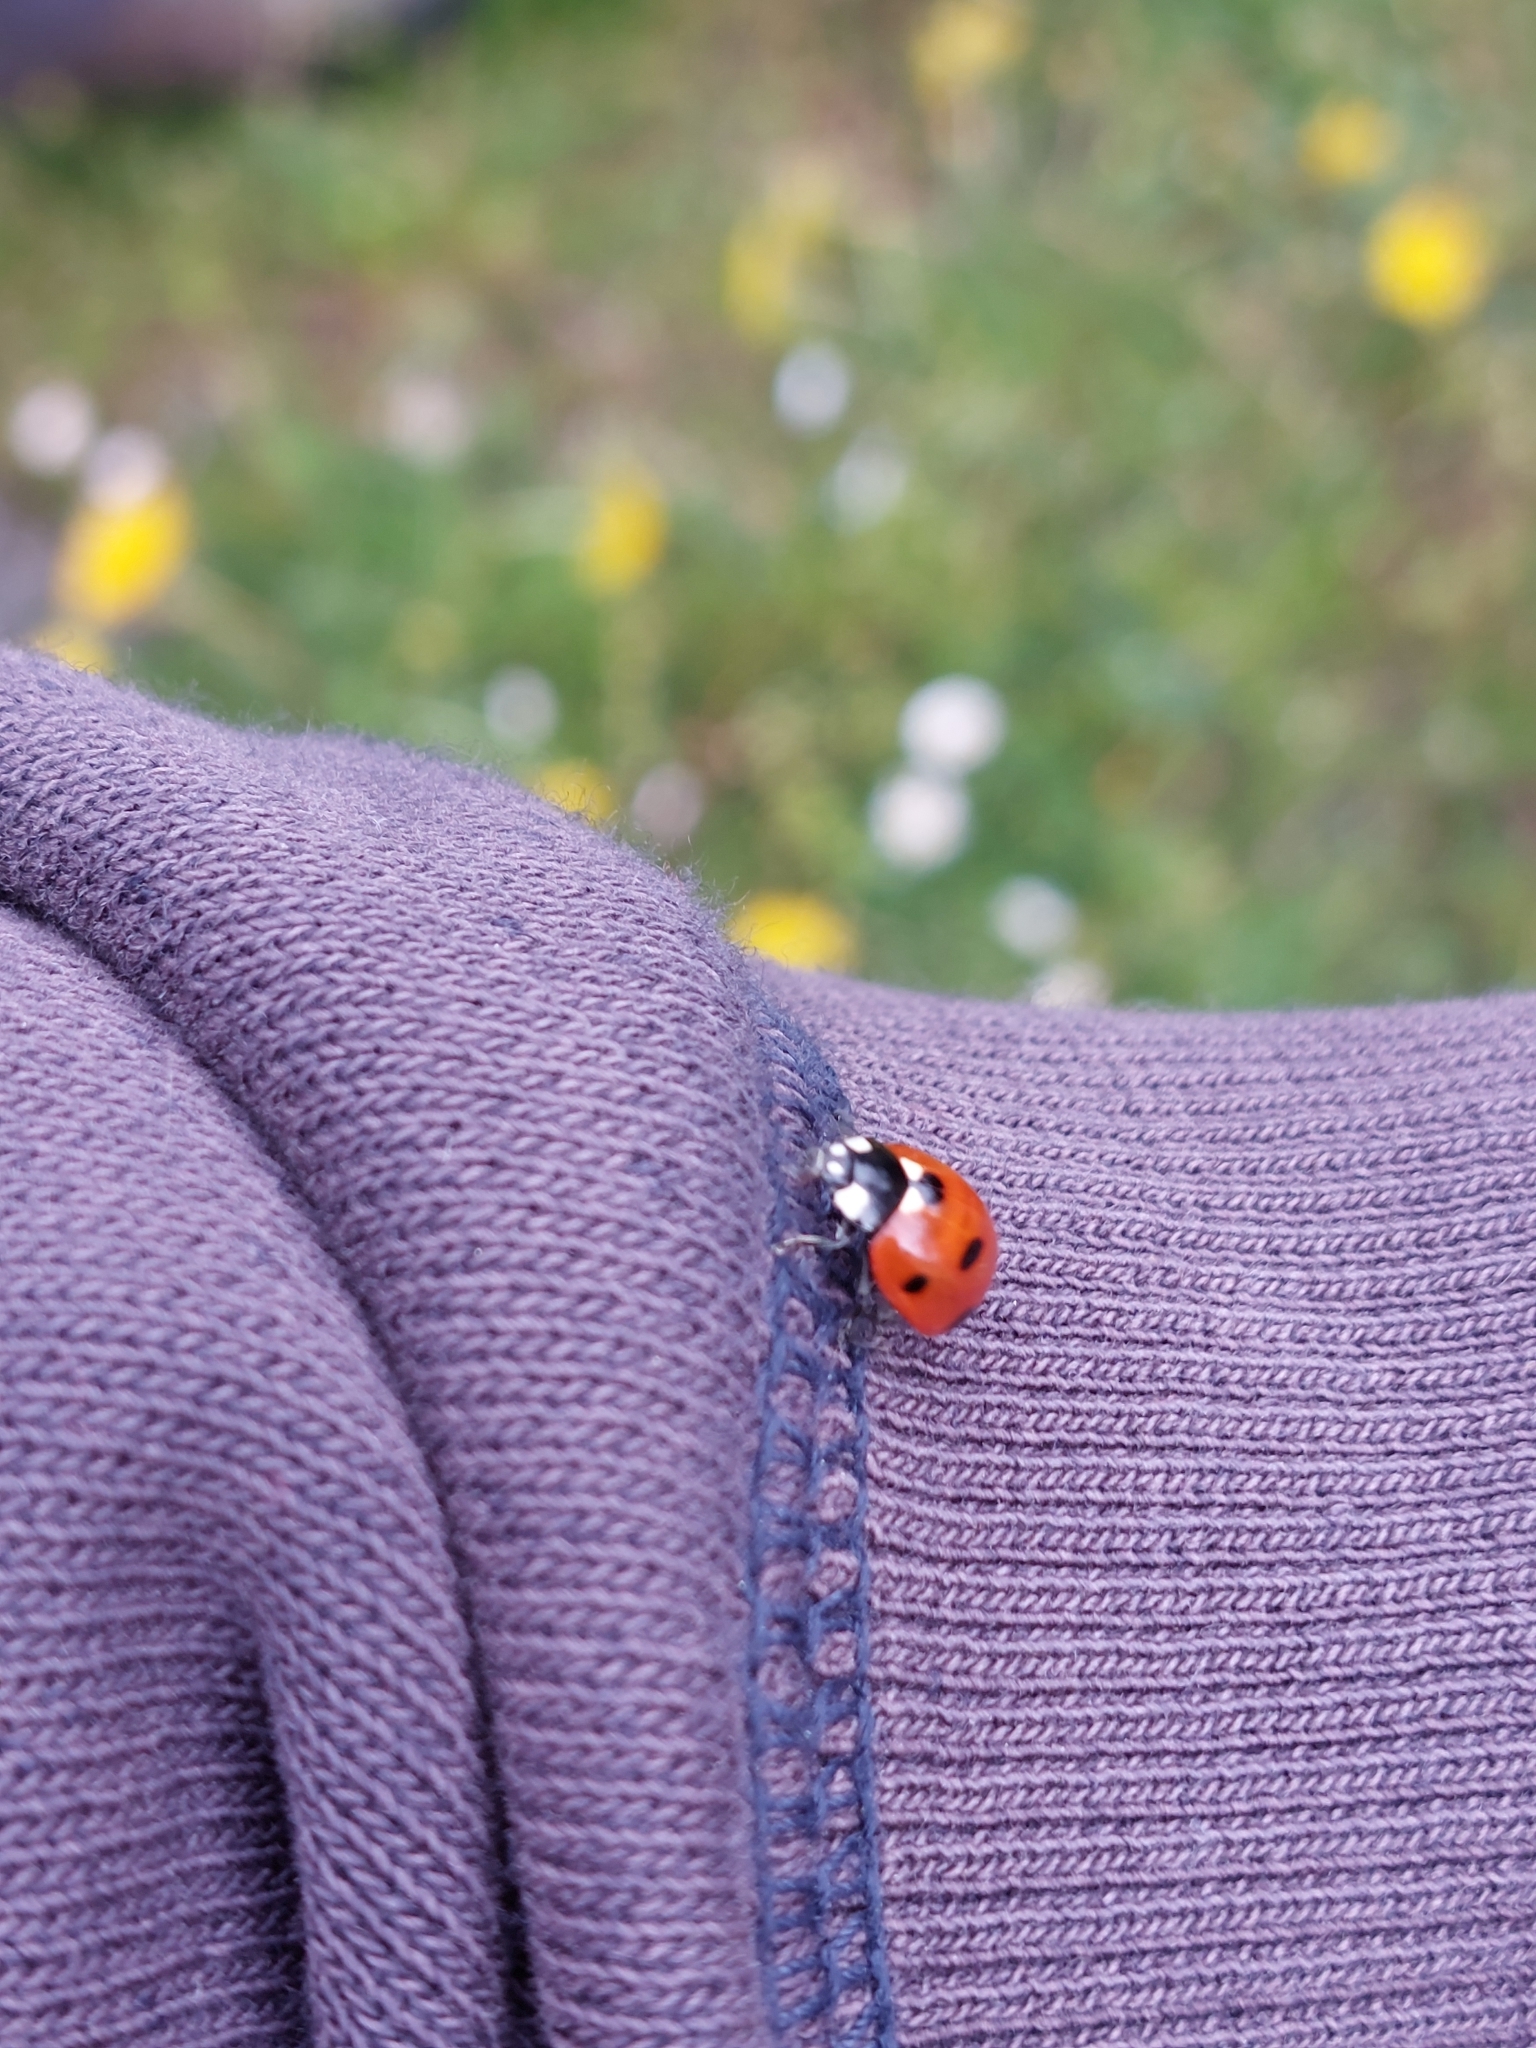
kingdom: Animalia
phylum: Arthropoda
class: Insecta
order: Coleoptera
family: Coccinellidae
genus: Coccinella
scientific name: Coccinella septempunctata
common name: Sevenspotted lady beetle
